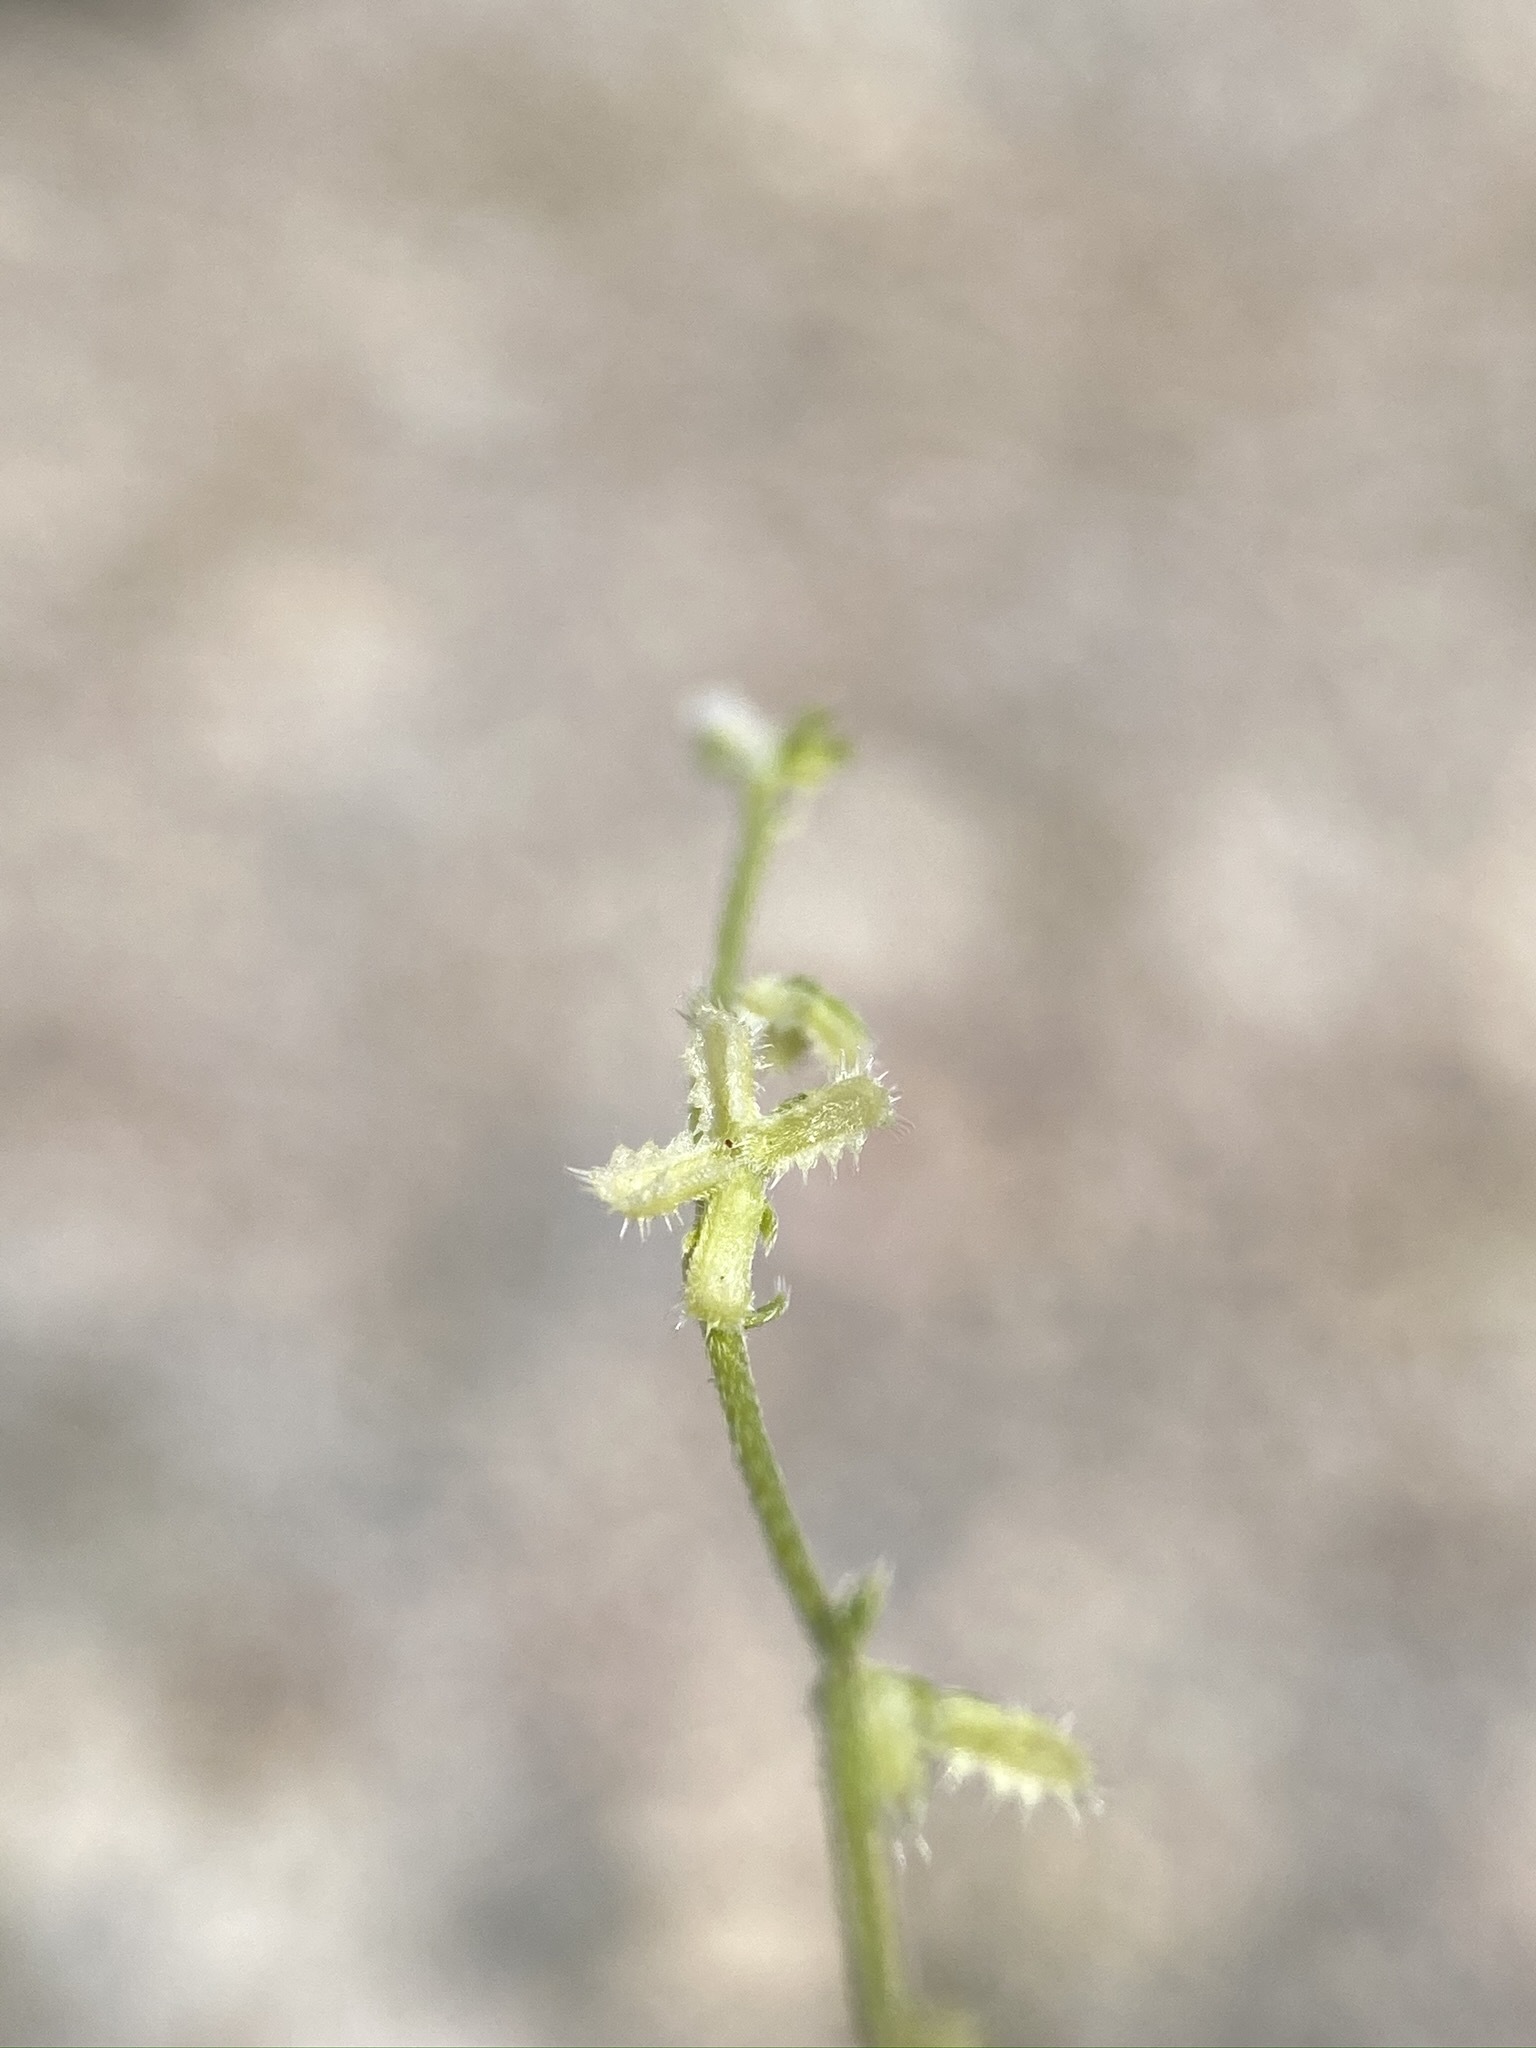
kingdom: Plantae
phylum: Tracheophyta
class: Magnoliopsida
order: Boraginales
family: Boraginaceae
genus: Pectocarya
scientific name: Pectocarya heterocarpa
